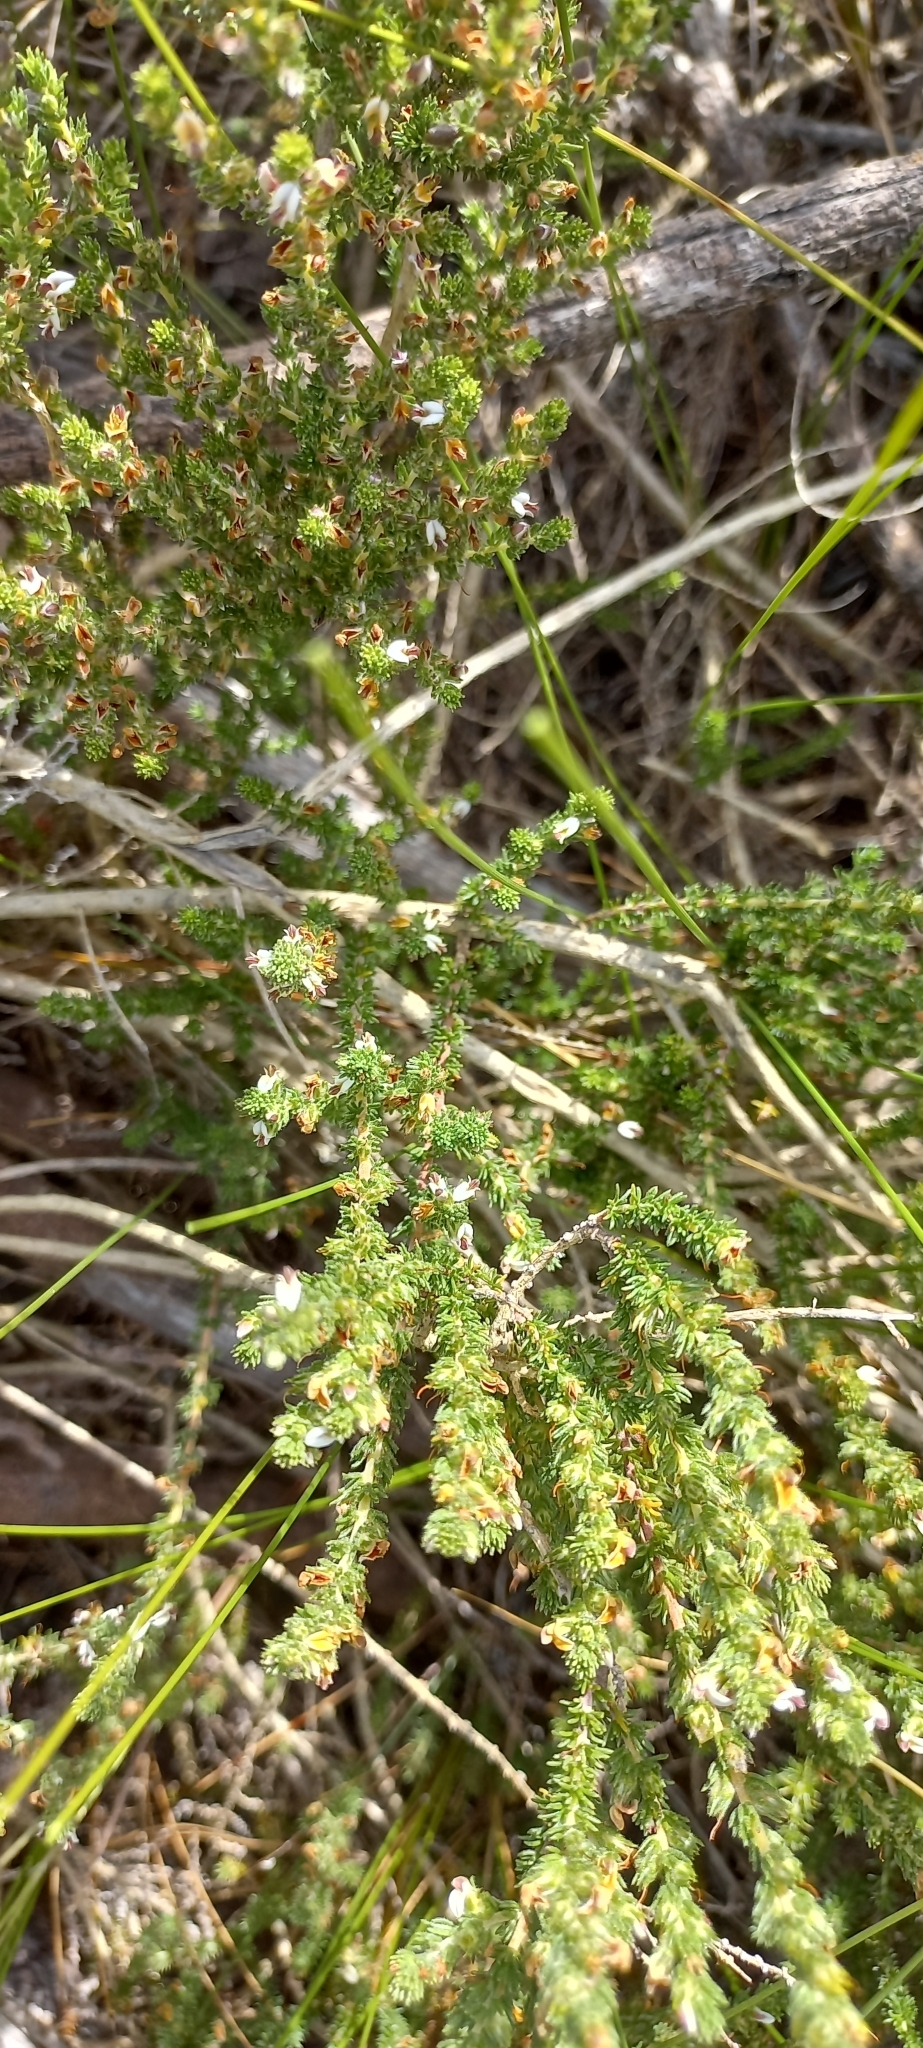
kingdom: Plantae
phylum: Tracheophyta
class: Magnoliopsida
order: Fabales
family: Fabaceae
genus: Aspalathus
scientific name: Aspalathus hispida
